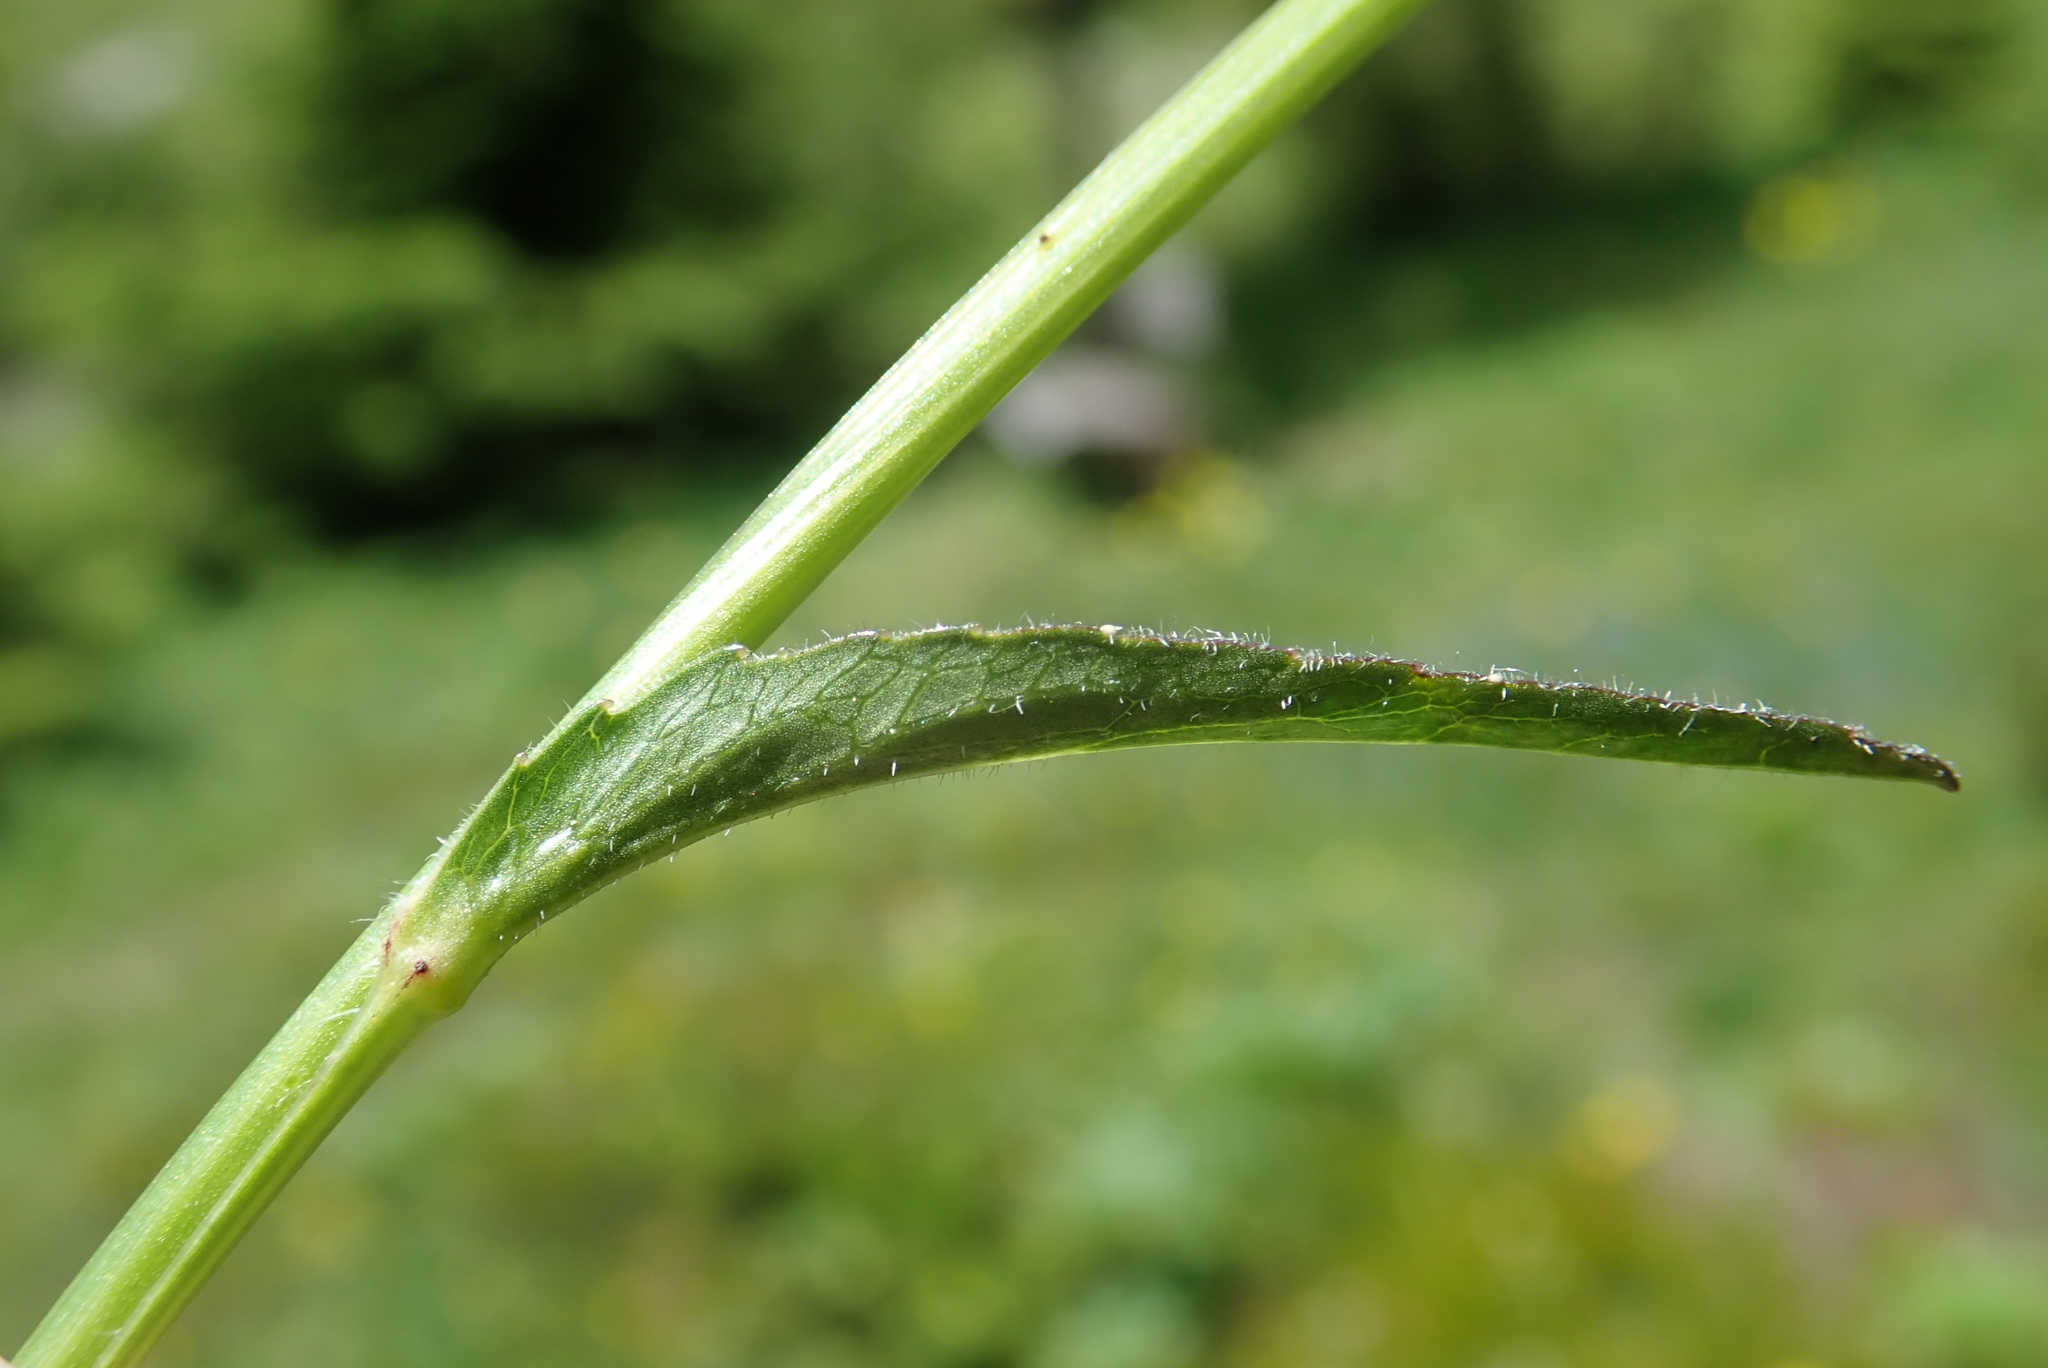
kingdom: Plantae
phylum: Tracheophyta
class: Magnoliopsida
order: Asterales
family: Campanulaceae
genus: Phyteuma
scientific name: Phyteuma orbiculare
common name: Round-headed rampion
